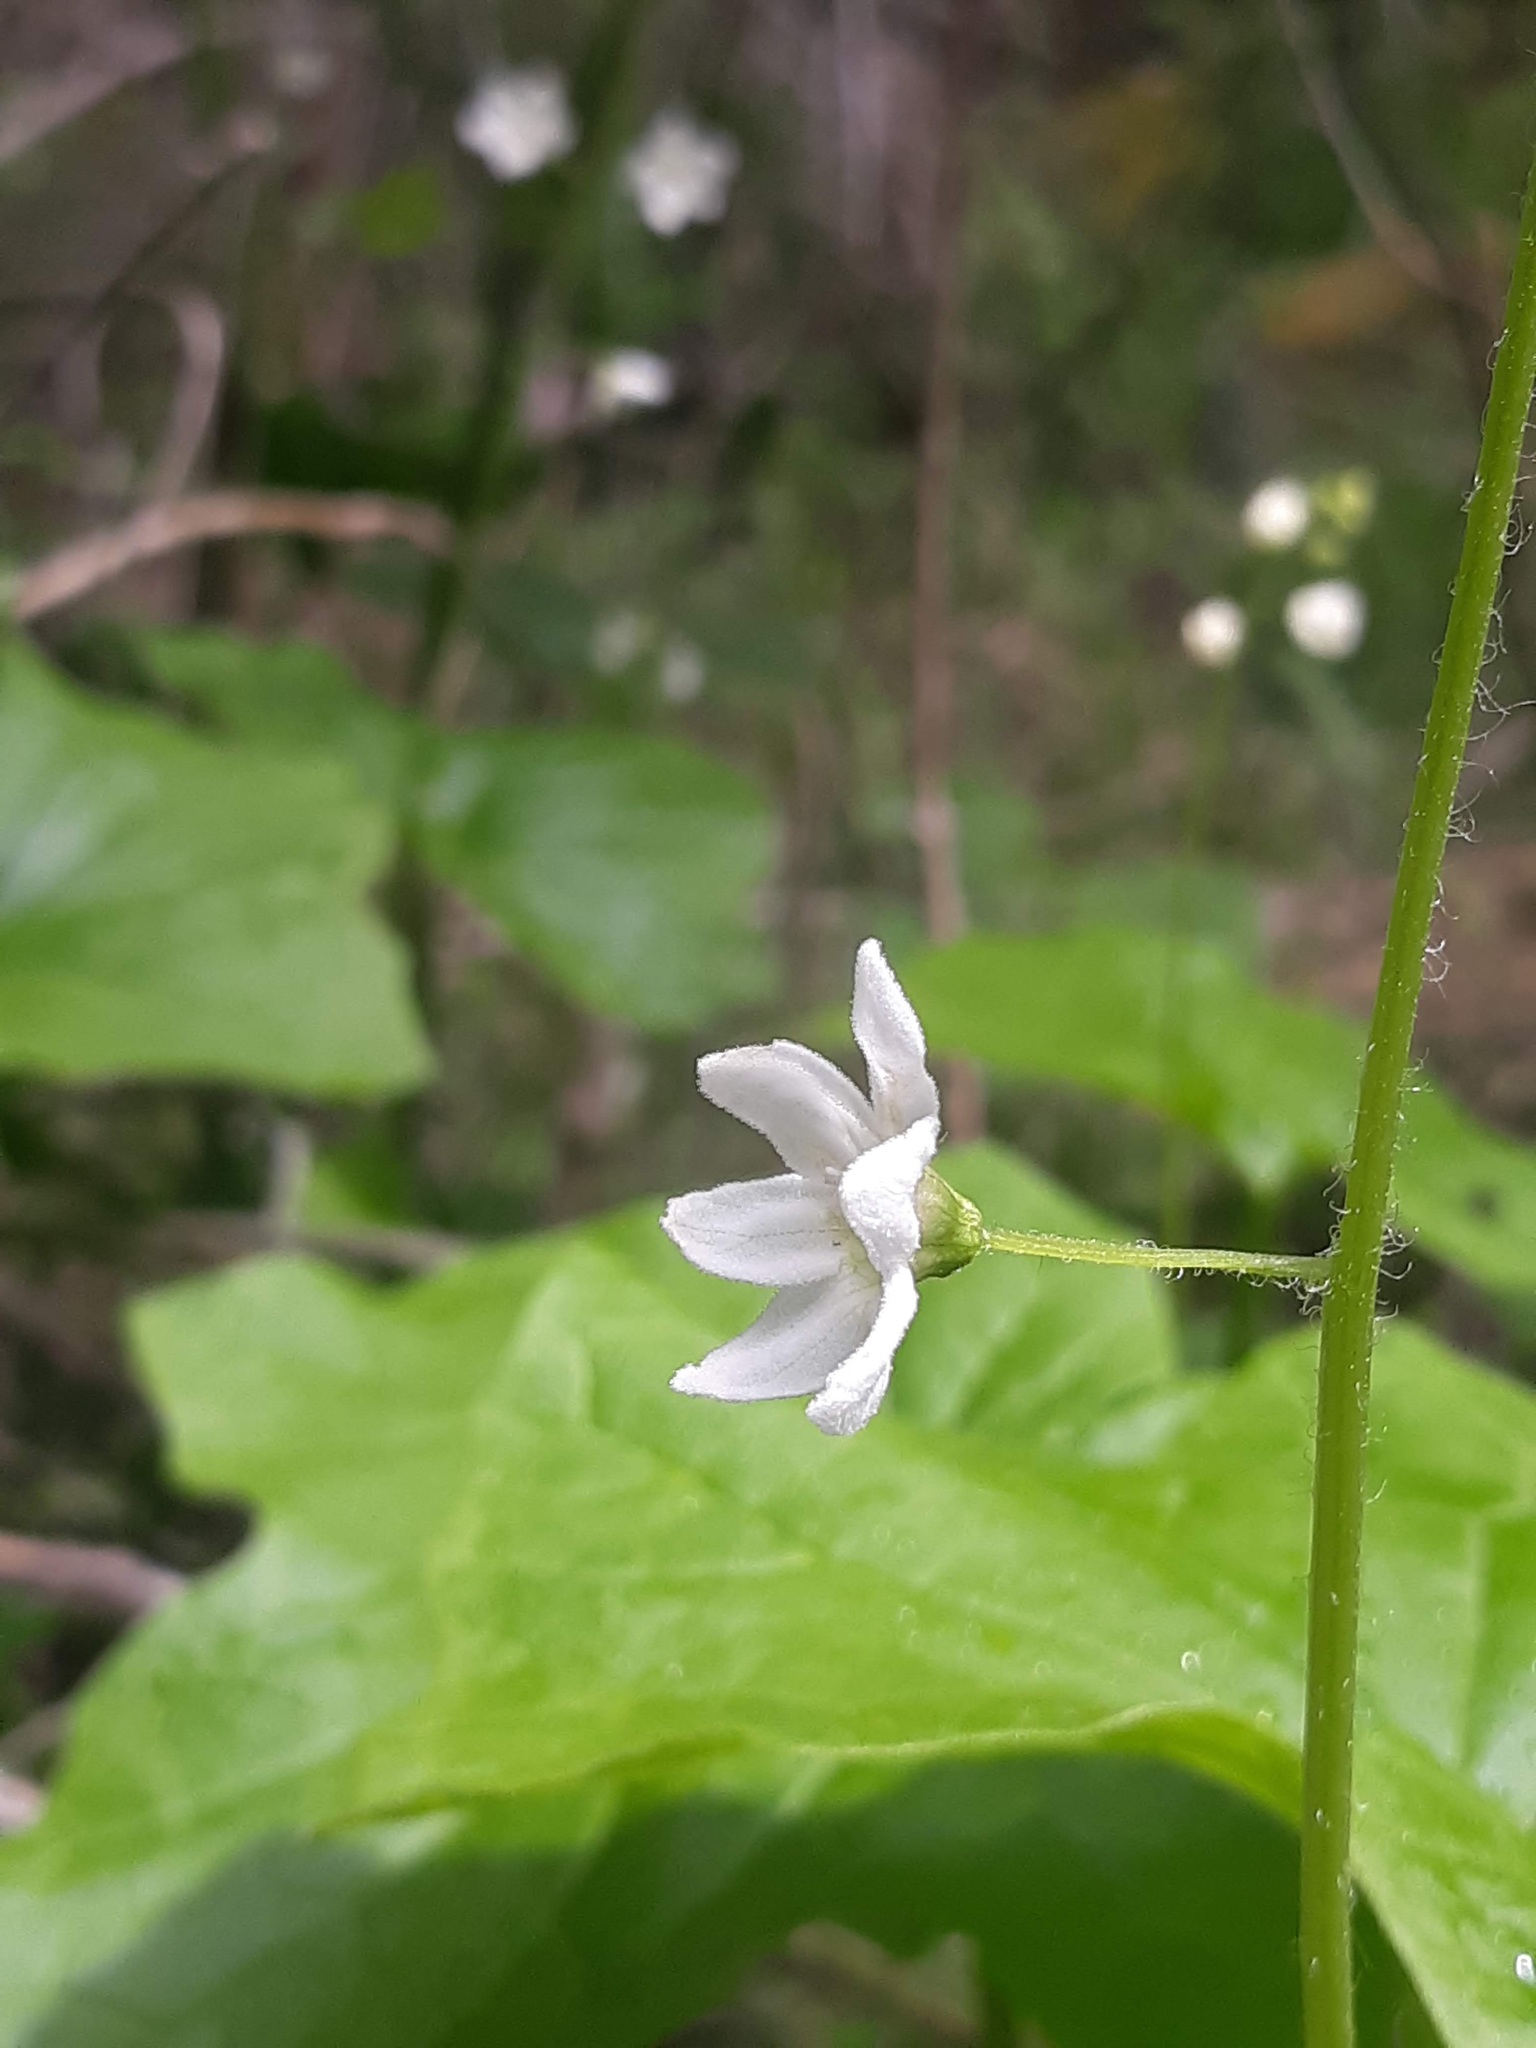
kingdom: Plantae
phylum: Tracheophyta
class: Magnoliopsida
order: Cucurbitales
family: Cucurbitaceae
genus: Marah
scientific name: Marah oregana
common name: Coastal manroot
